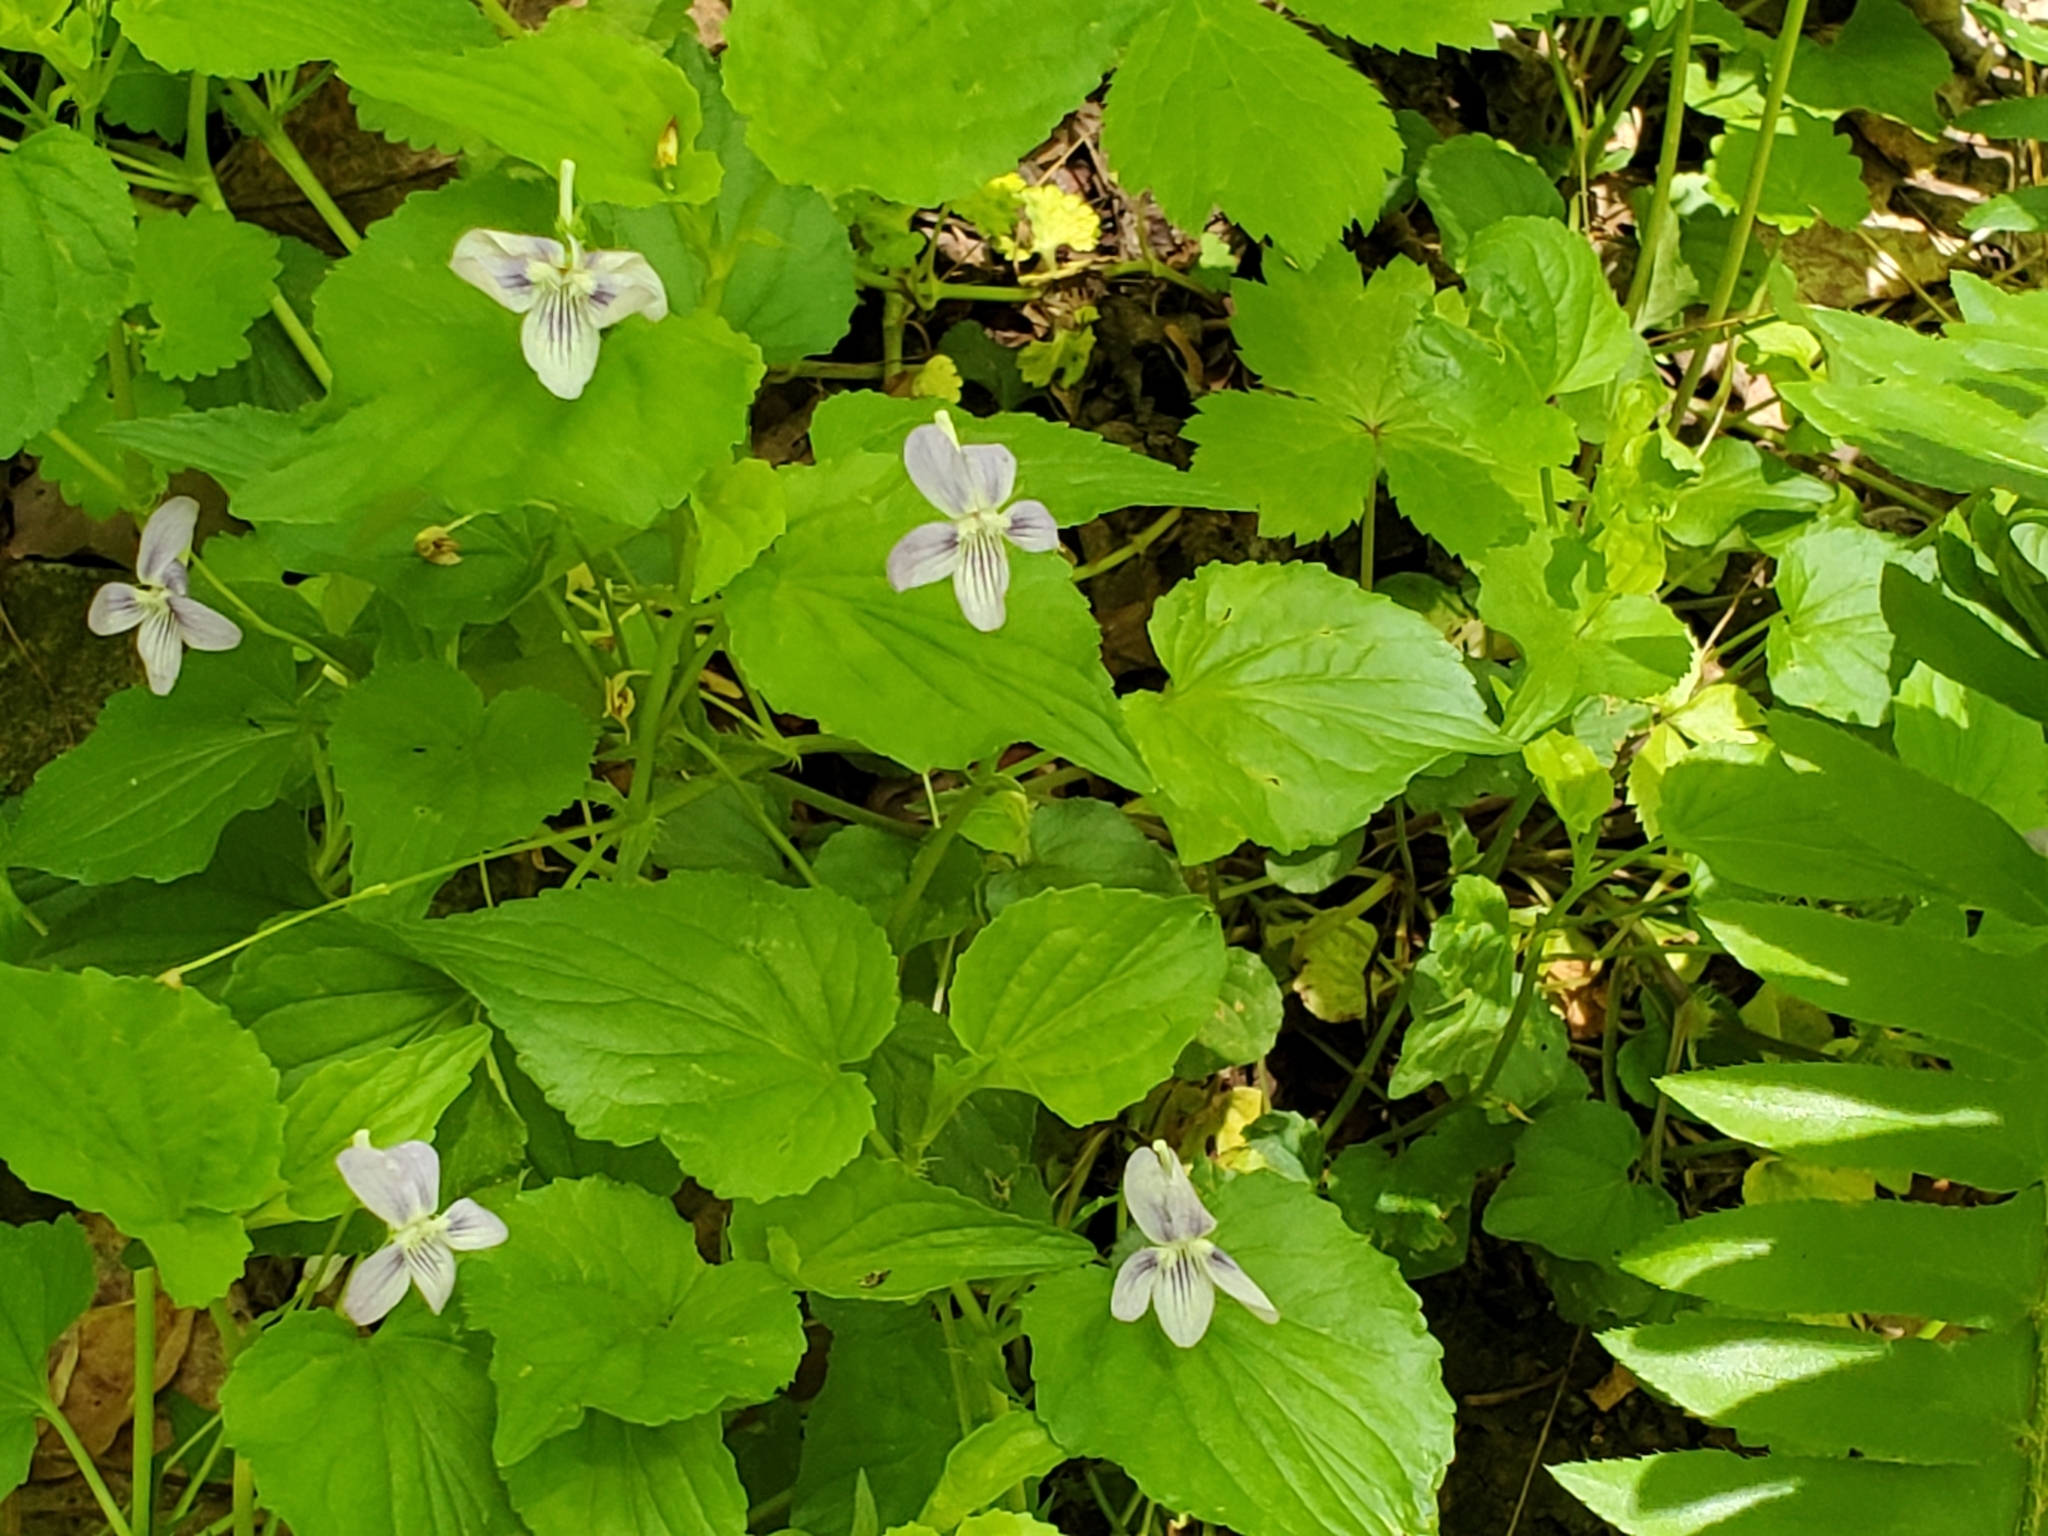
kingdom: Plantae
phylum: Tracheophyta
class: Magnoliopsida
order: Malpighiales
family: Violaceae
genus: Viola
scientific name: Viola rostrata
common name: Long-spur violet
